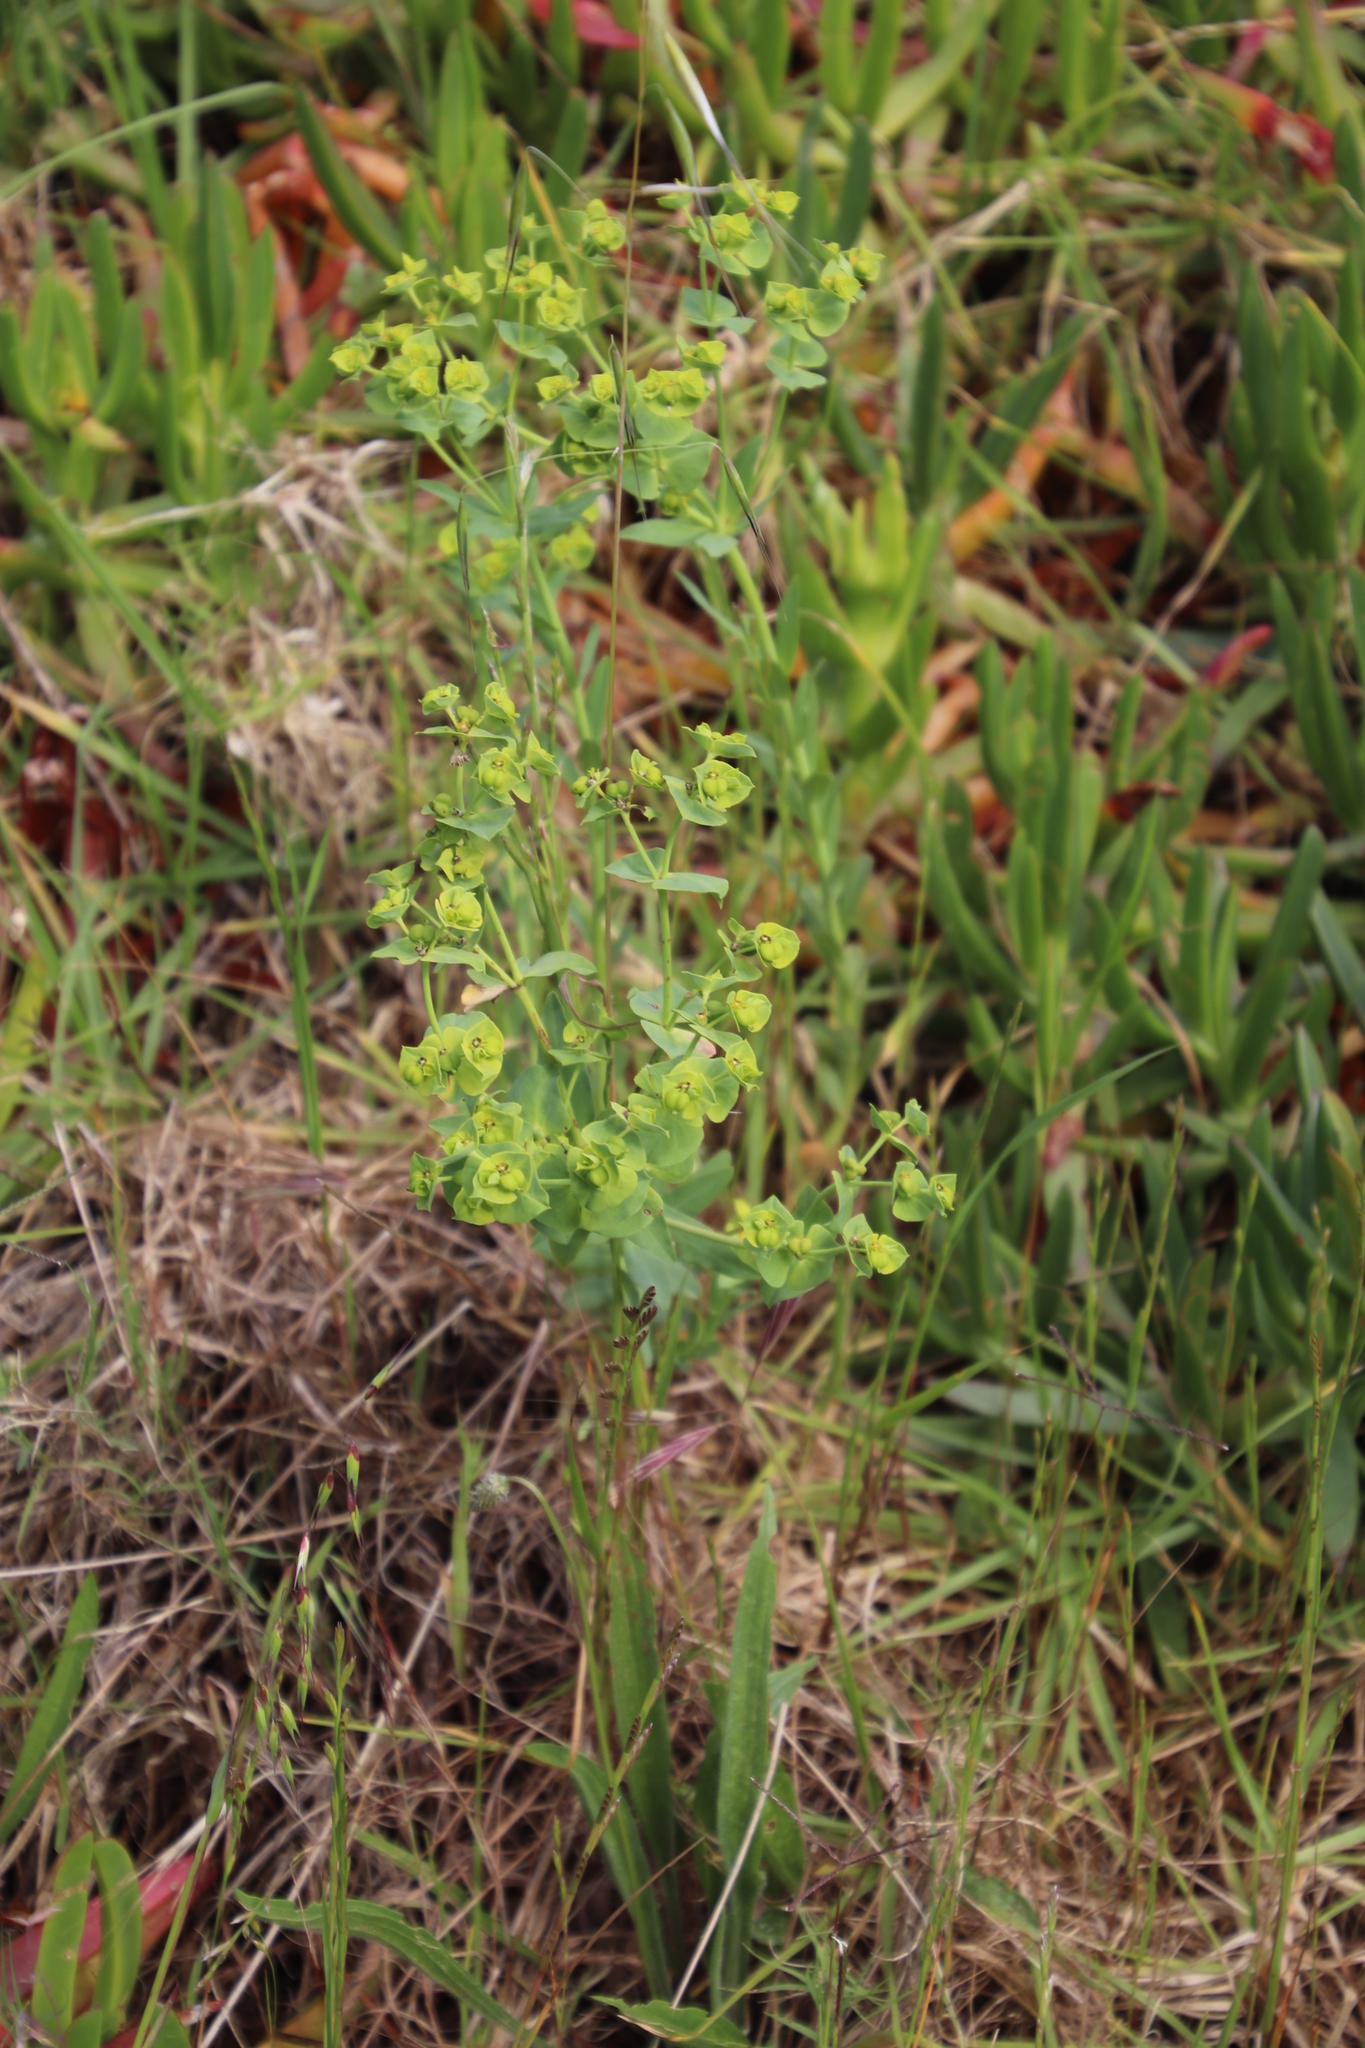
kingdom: Plantae
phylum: Tracheophyta
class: Magnoliopsida
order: Malpighiales
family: Euphorbiaceae
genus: Euphorbia
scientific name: Euphorbia terracina
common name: Geraldton carnation weed
